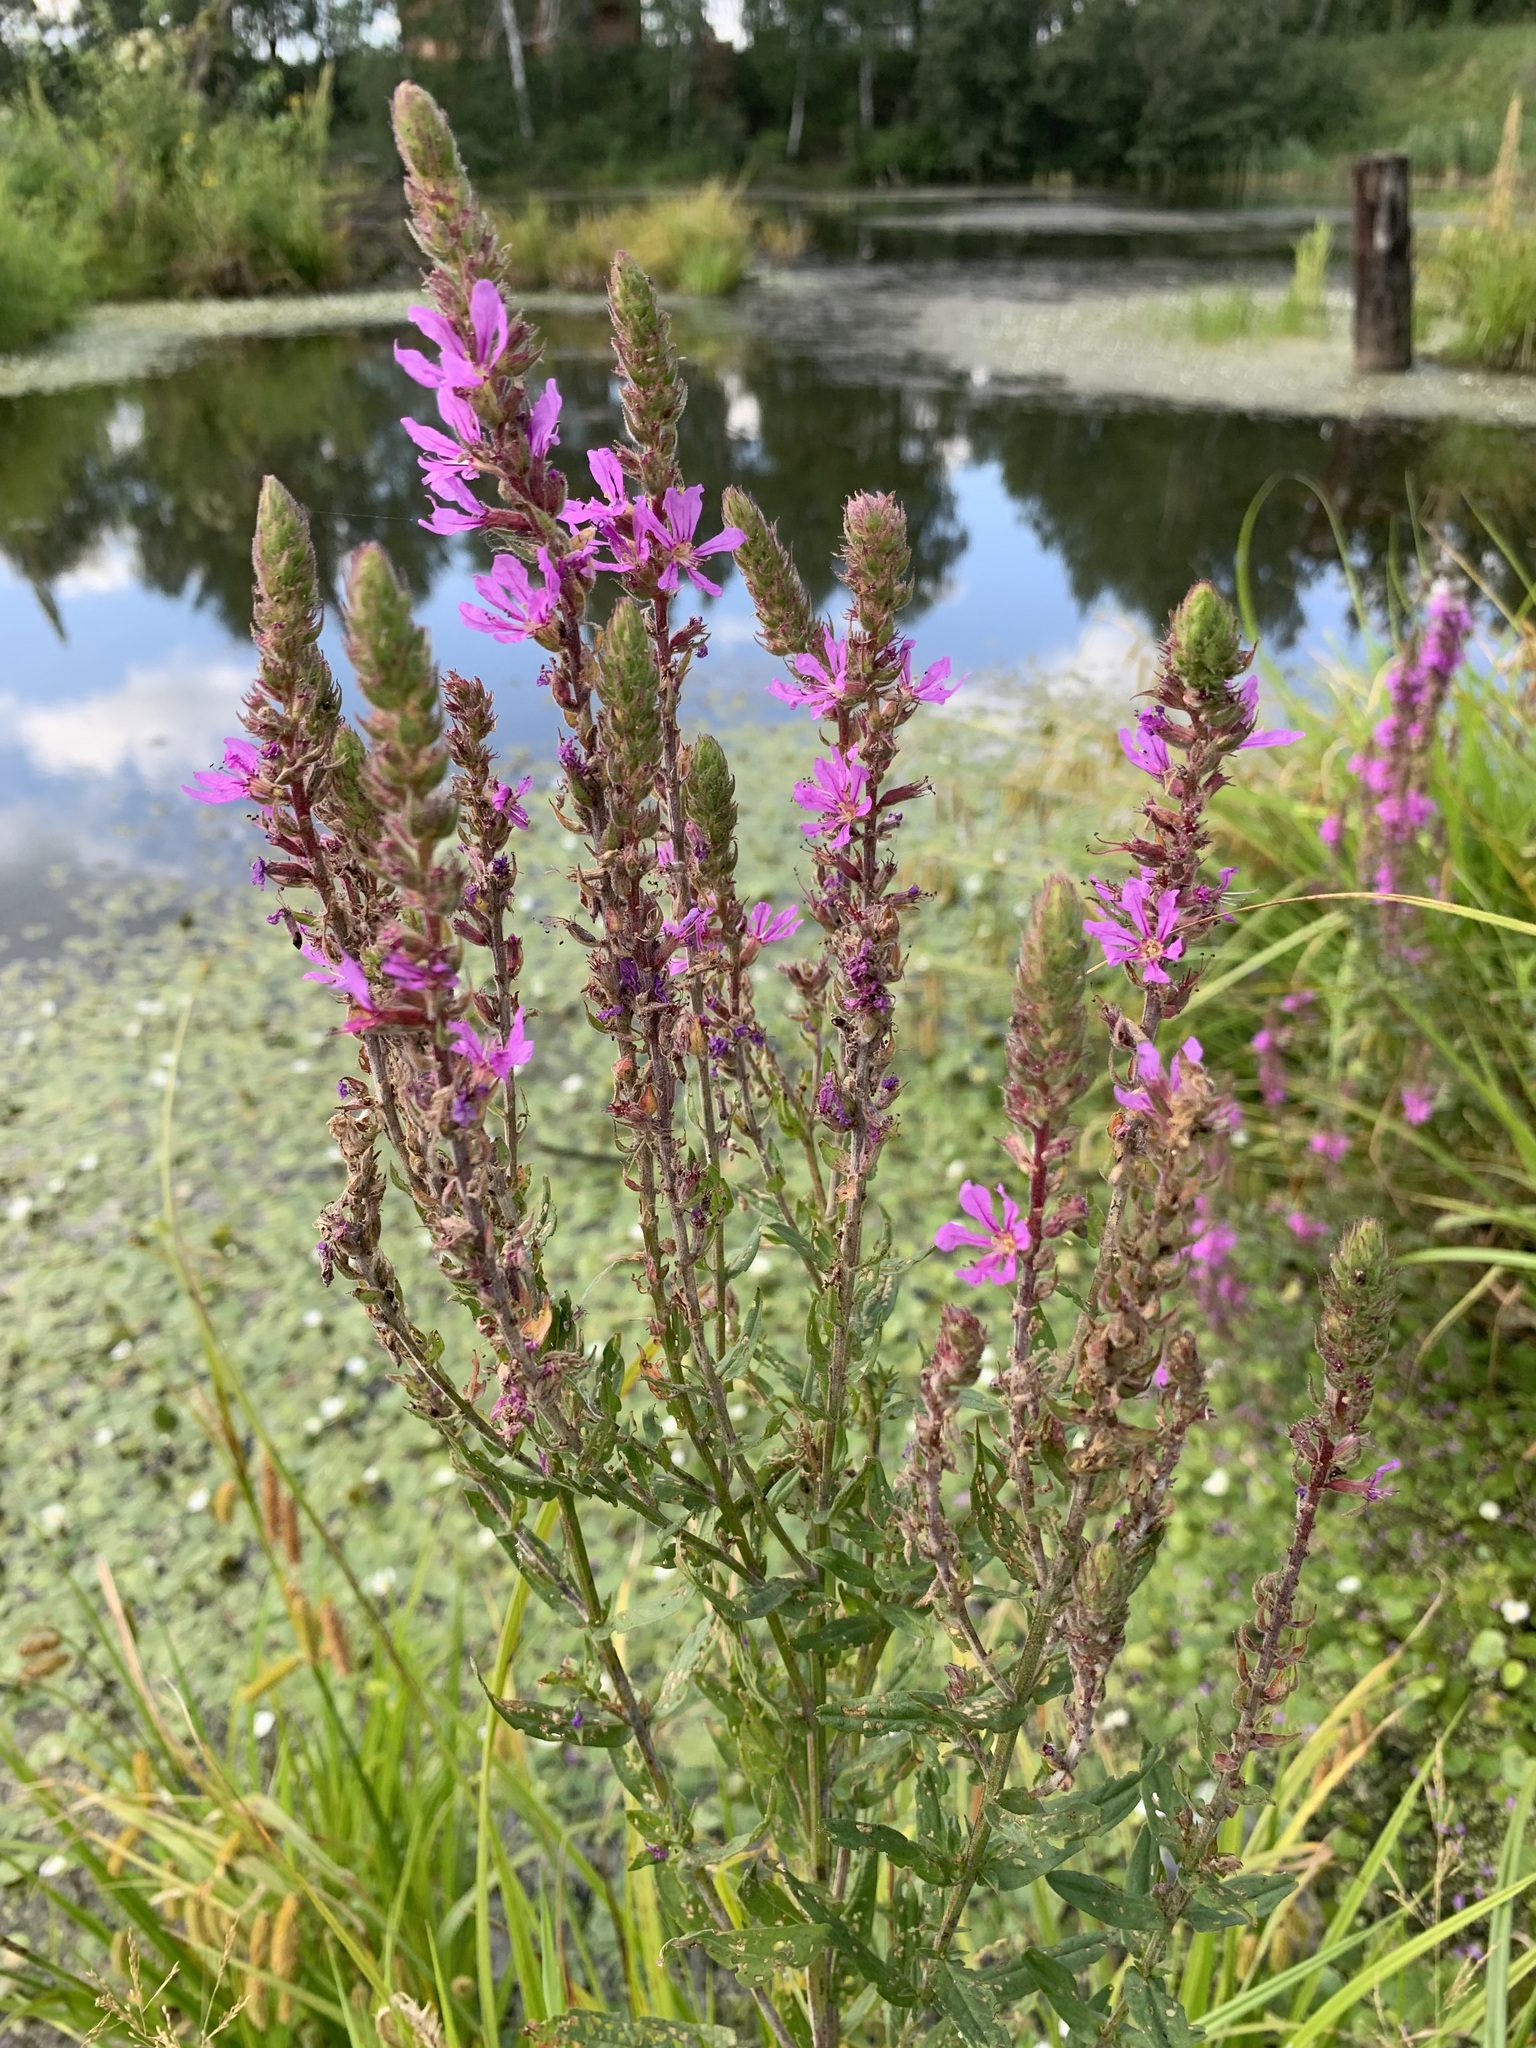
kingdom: Plantae
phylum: Tracheophyta
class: Magnoliopsida
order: Myrtales
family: Lythraceae
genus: Lythrum
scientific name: Lythrum salicaria
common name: Purple loosestrife
